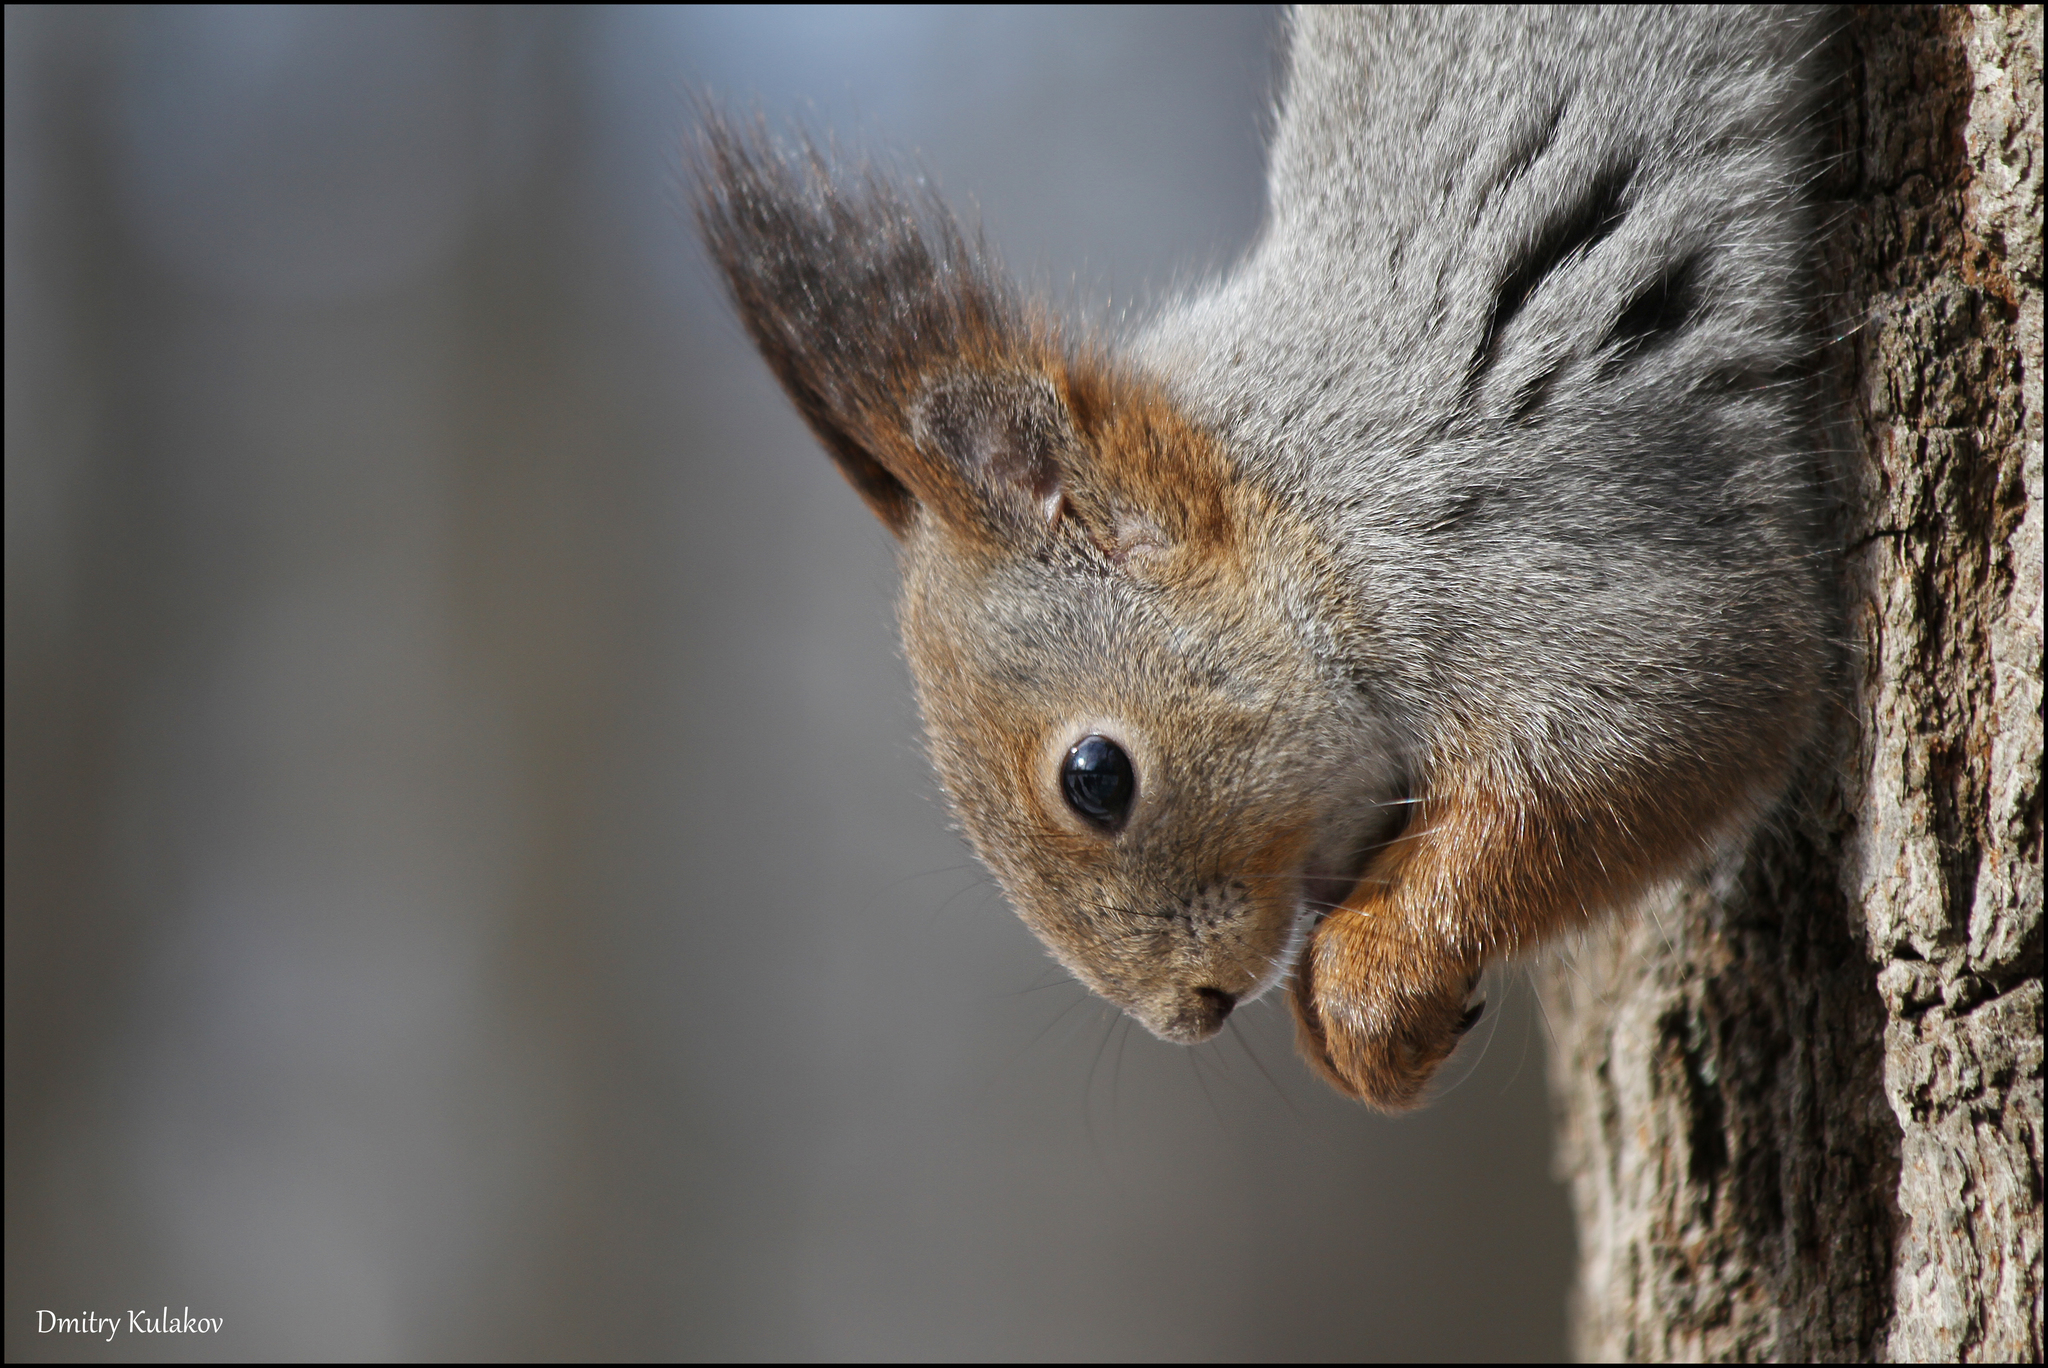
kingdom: Animalia
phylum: Chordata
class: Mammalia
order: Rodentia
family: Sciuridae
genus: Sciurus
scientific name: Sciurus vulgaris
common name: Eurasian red squirrel
